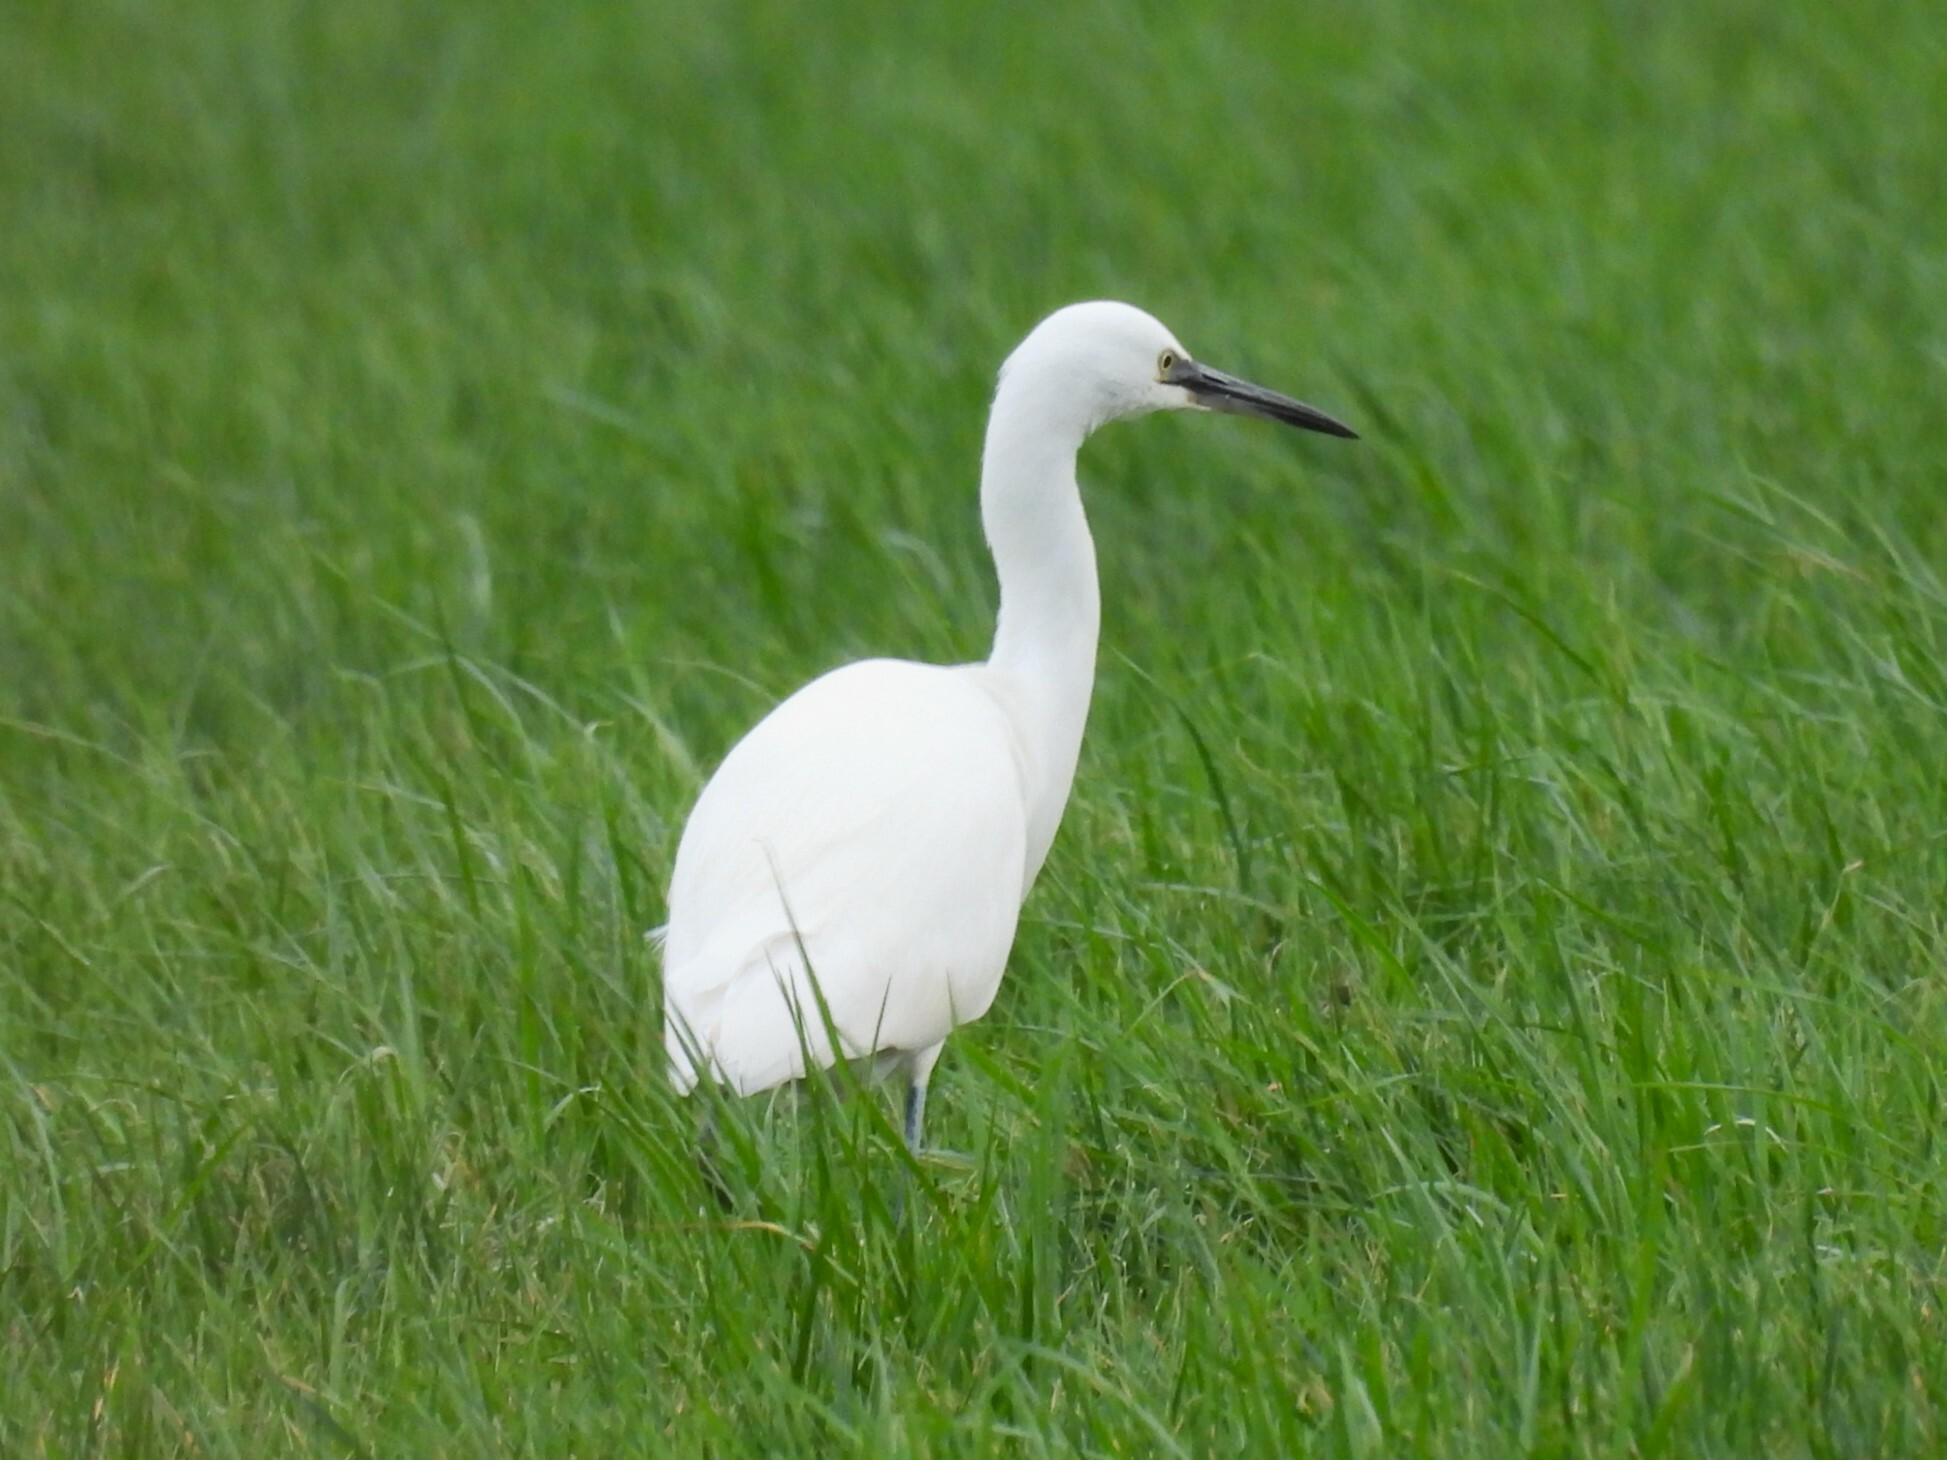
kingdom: Animalia
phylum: Chordata
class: Aves
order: Pelecaniformes
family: Ardeidae
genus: Egretta
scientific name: Egretta garzetta
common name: Little egret
